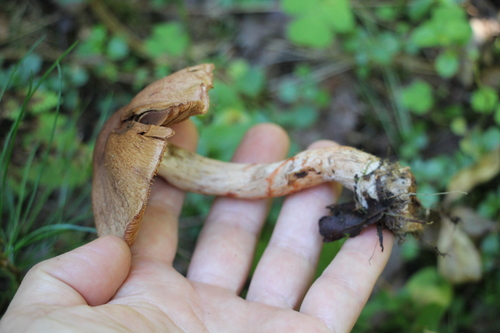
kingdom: Fungi
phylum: Basidiomycota
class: Agaricomycetes
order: Agaricales
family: Cortinariaceae
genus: Cortinarius
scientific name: Cortinarius armillatus
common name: Red banded webcap
